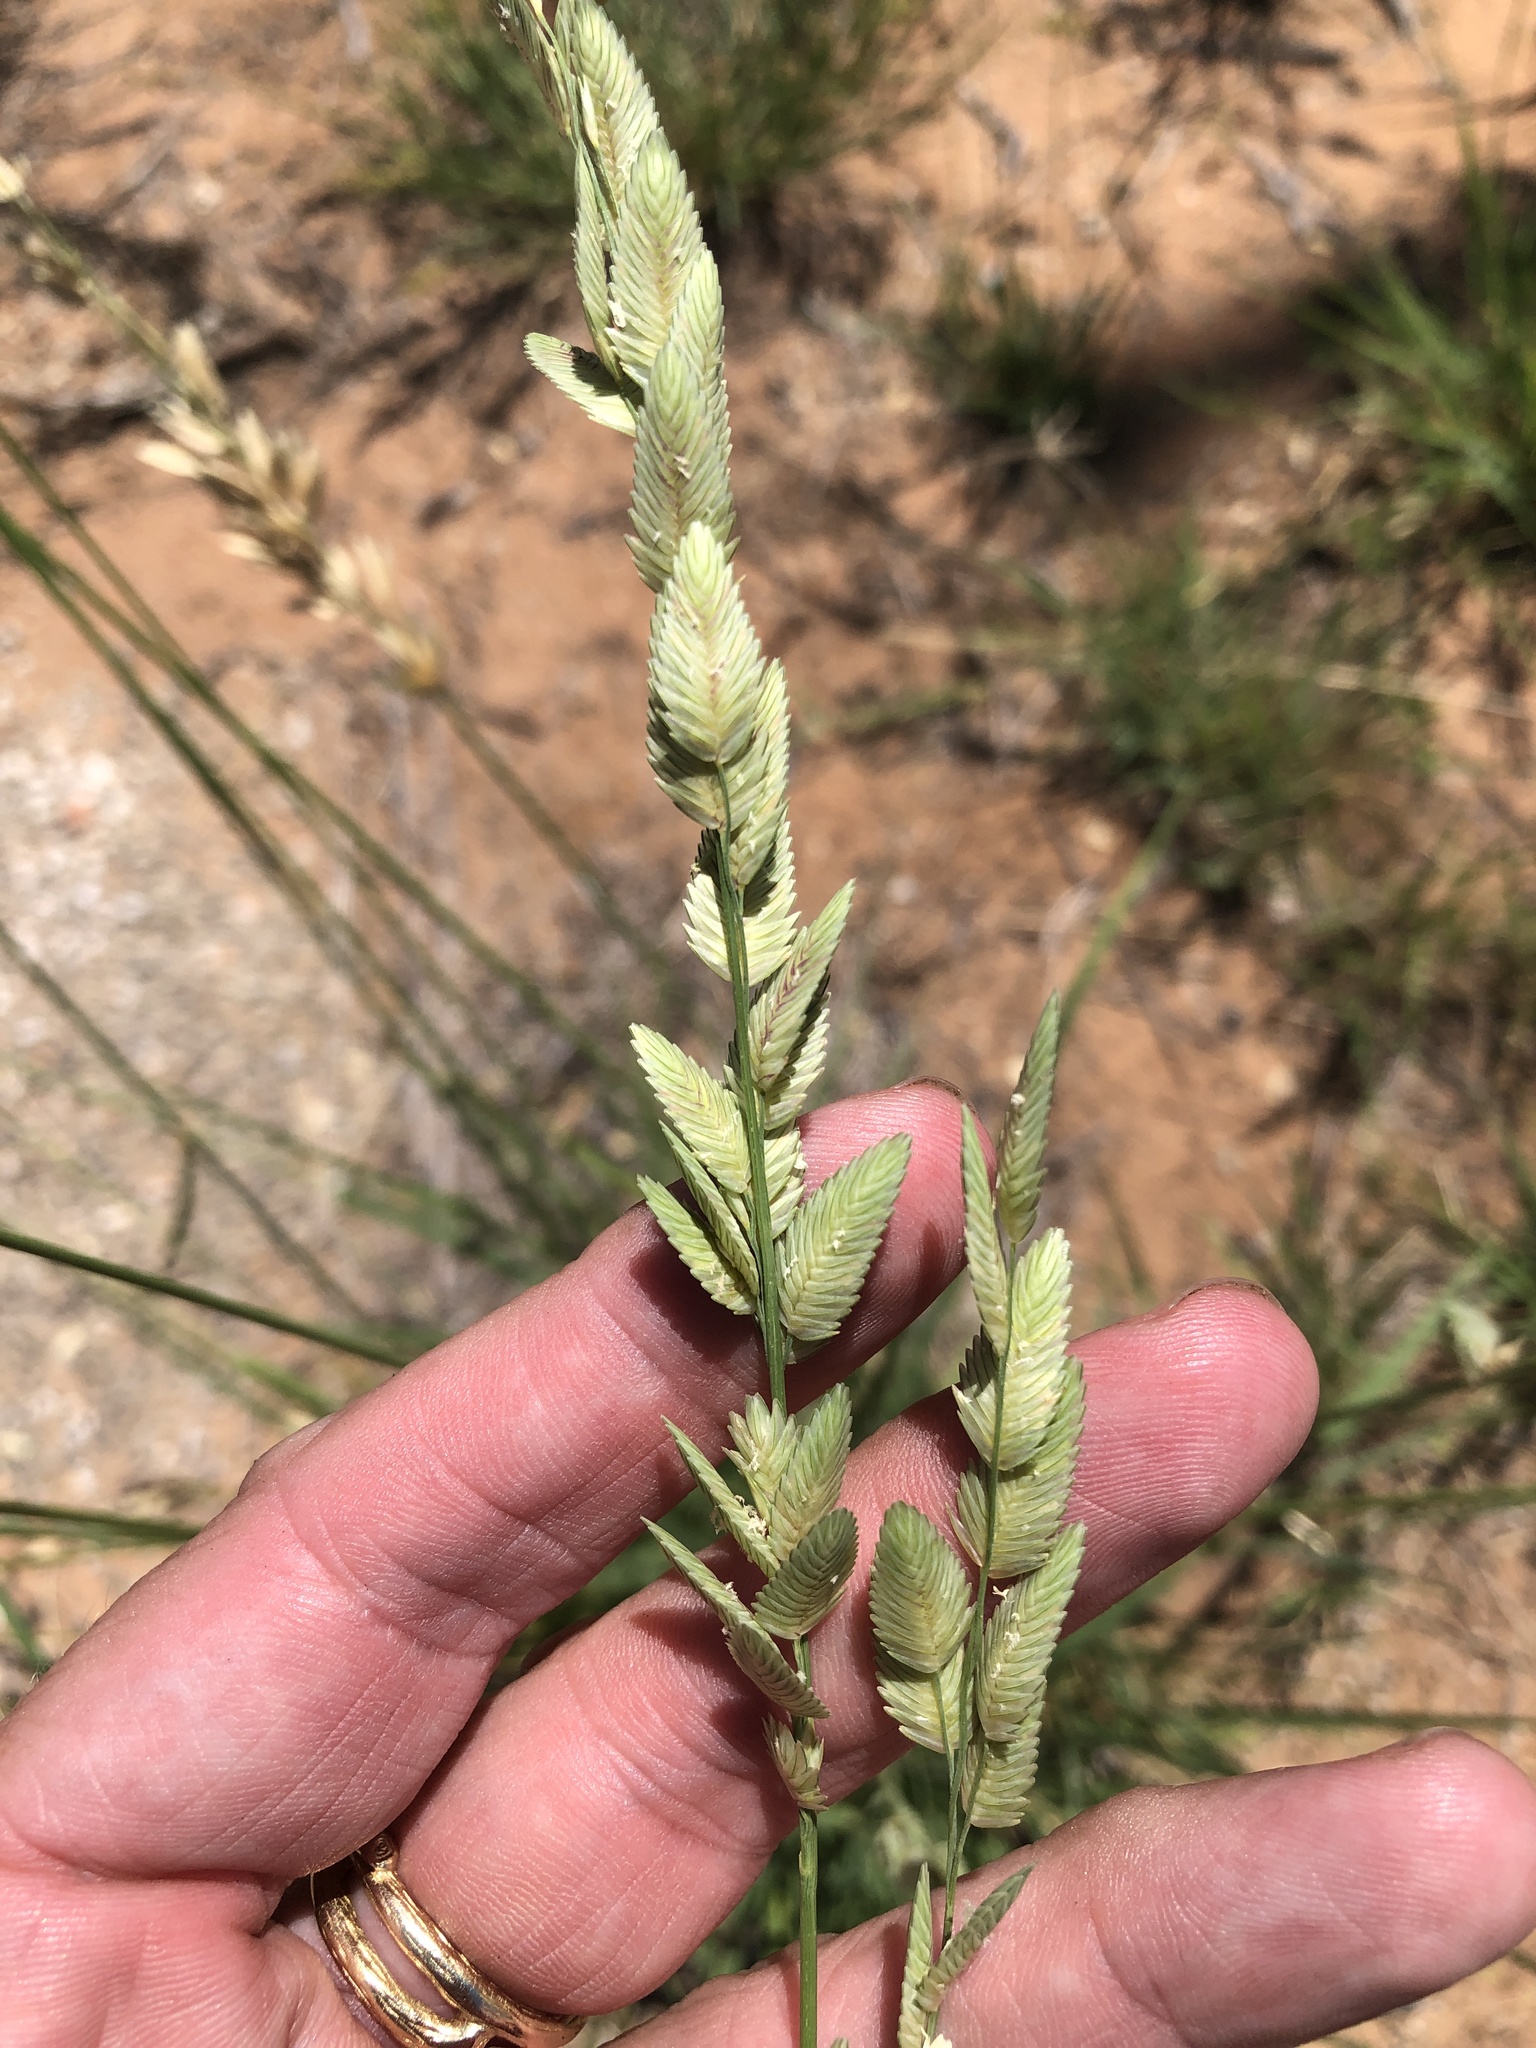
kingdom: Plantae
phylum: Tracheophyta
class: Liliopsida
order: Poales
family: Poaceae
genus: Eragrostis
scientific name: Eragrostis superba
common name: Wilman lovegrass
